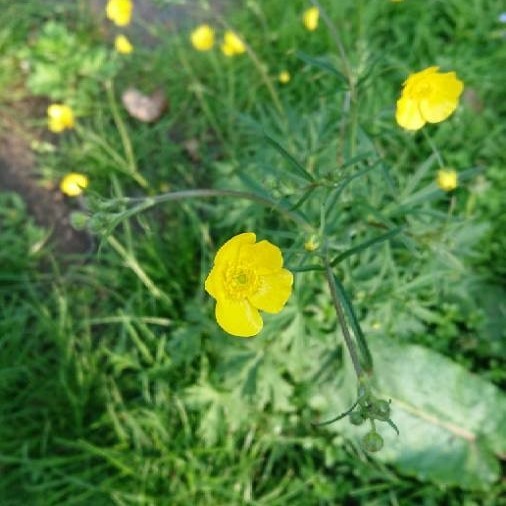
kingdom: Plantae
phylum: Tracheophyta
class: Magnoliopsida
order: Ranunculales
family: Ranunculaceae
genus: Ranunculus
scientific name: Ranunculus acris
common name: Meadow buttercup
